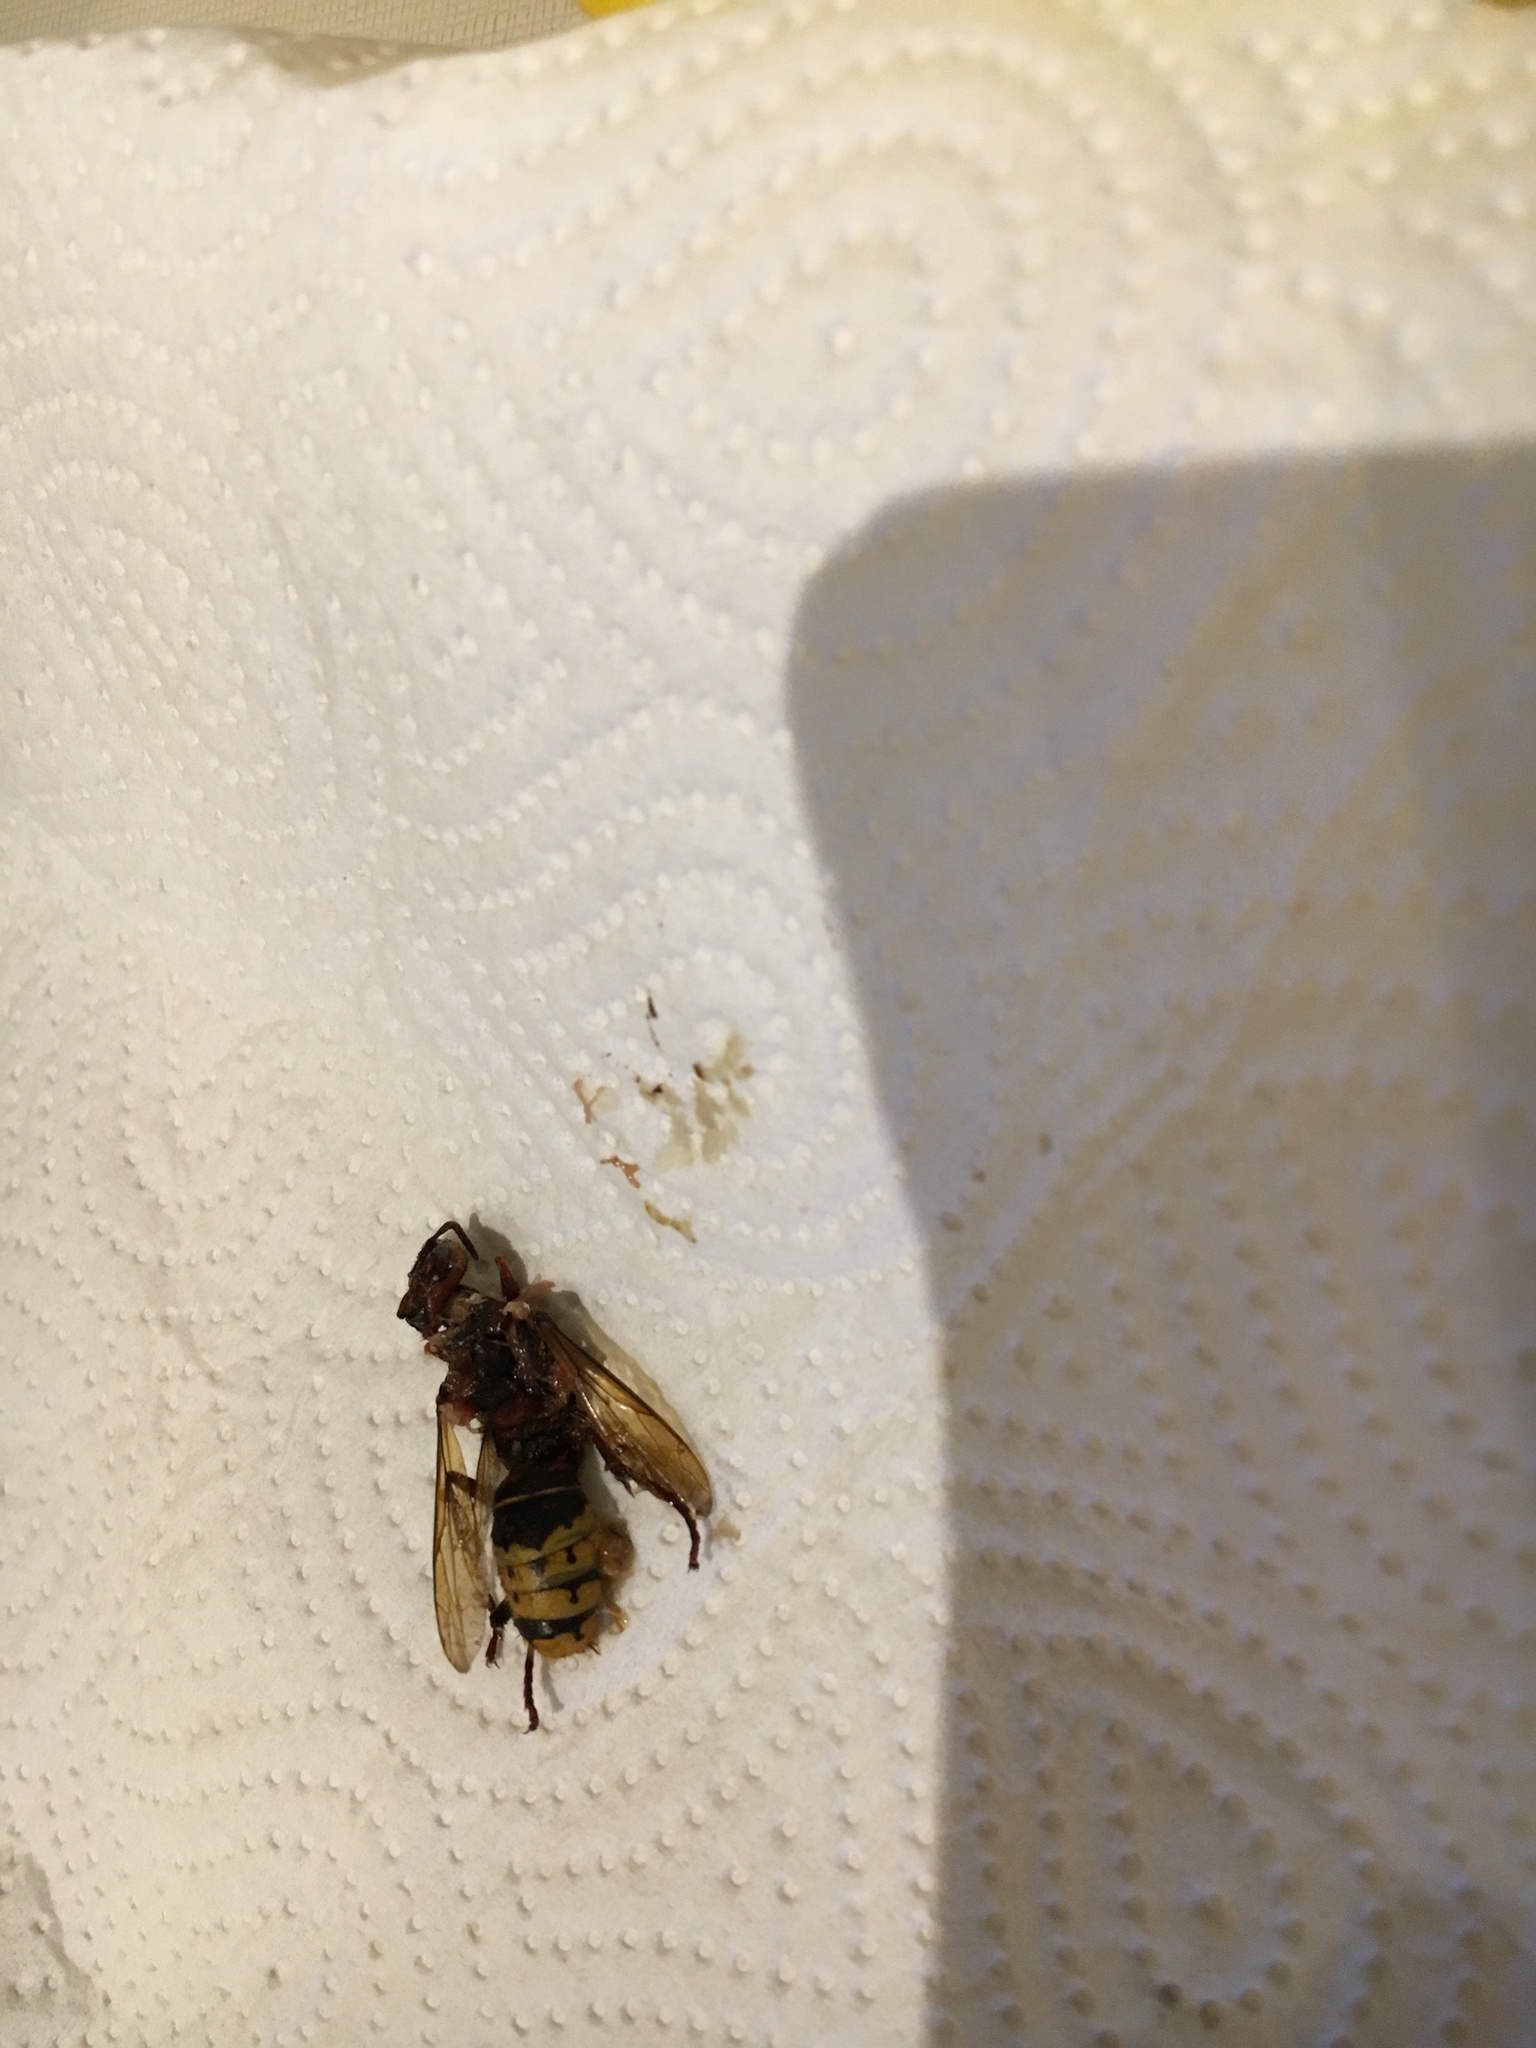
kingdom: Animalia
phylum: Arthropoda
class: Insecta
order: Hymenoptera
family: Vespidae
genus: Vespa
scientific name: Vespa crabro
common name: Hornet
